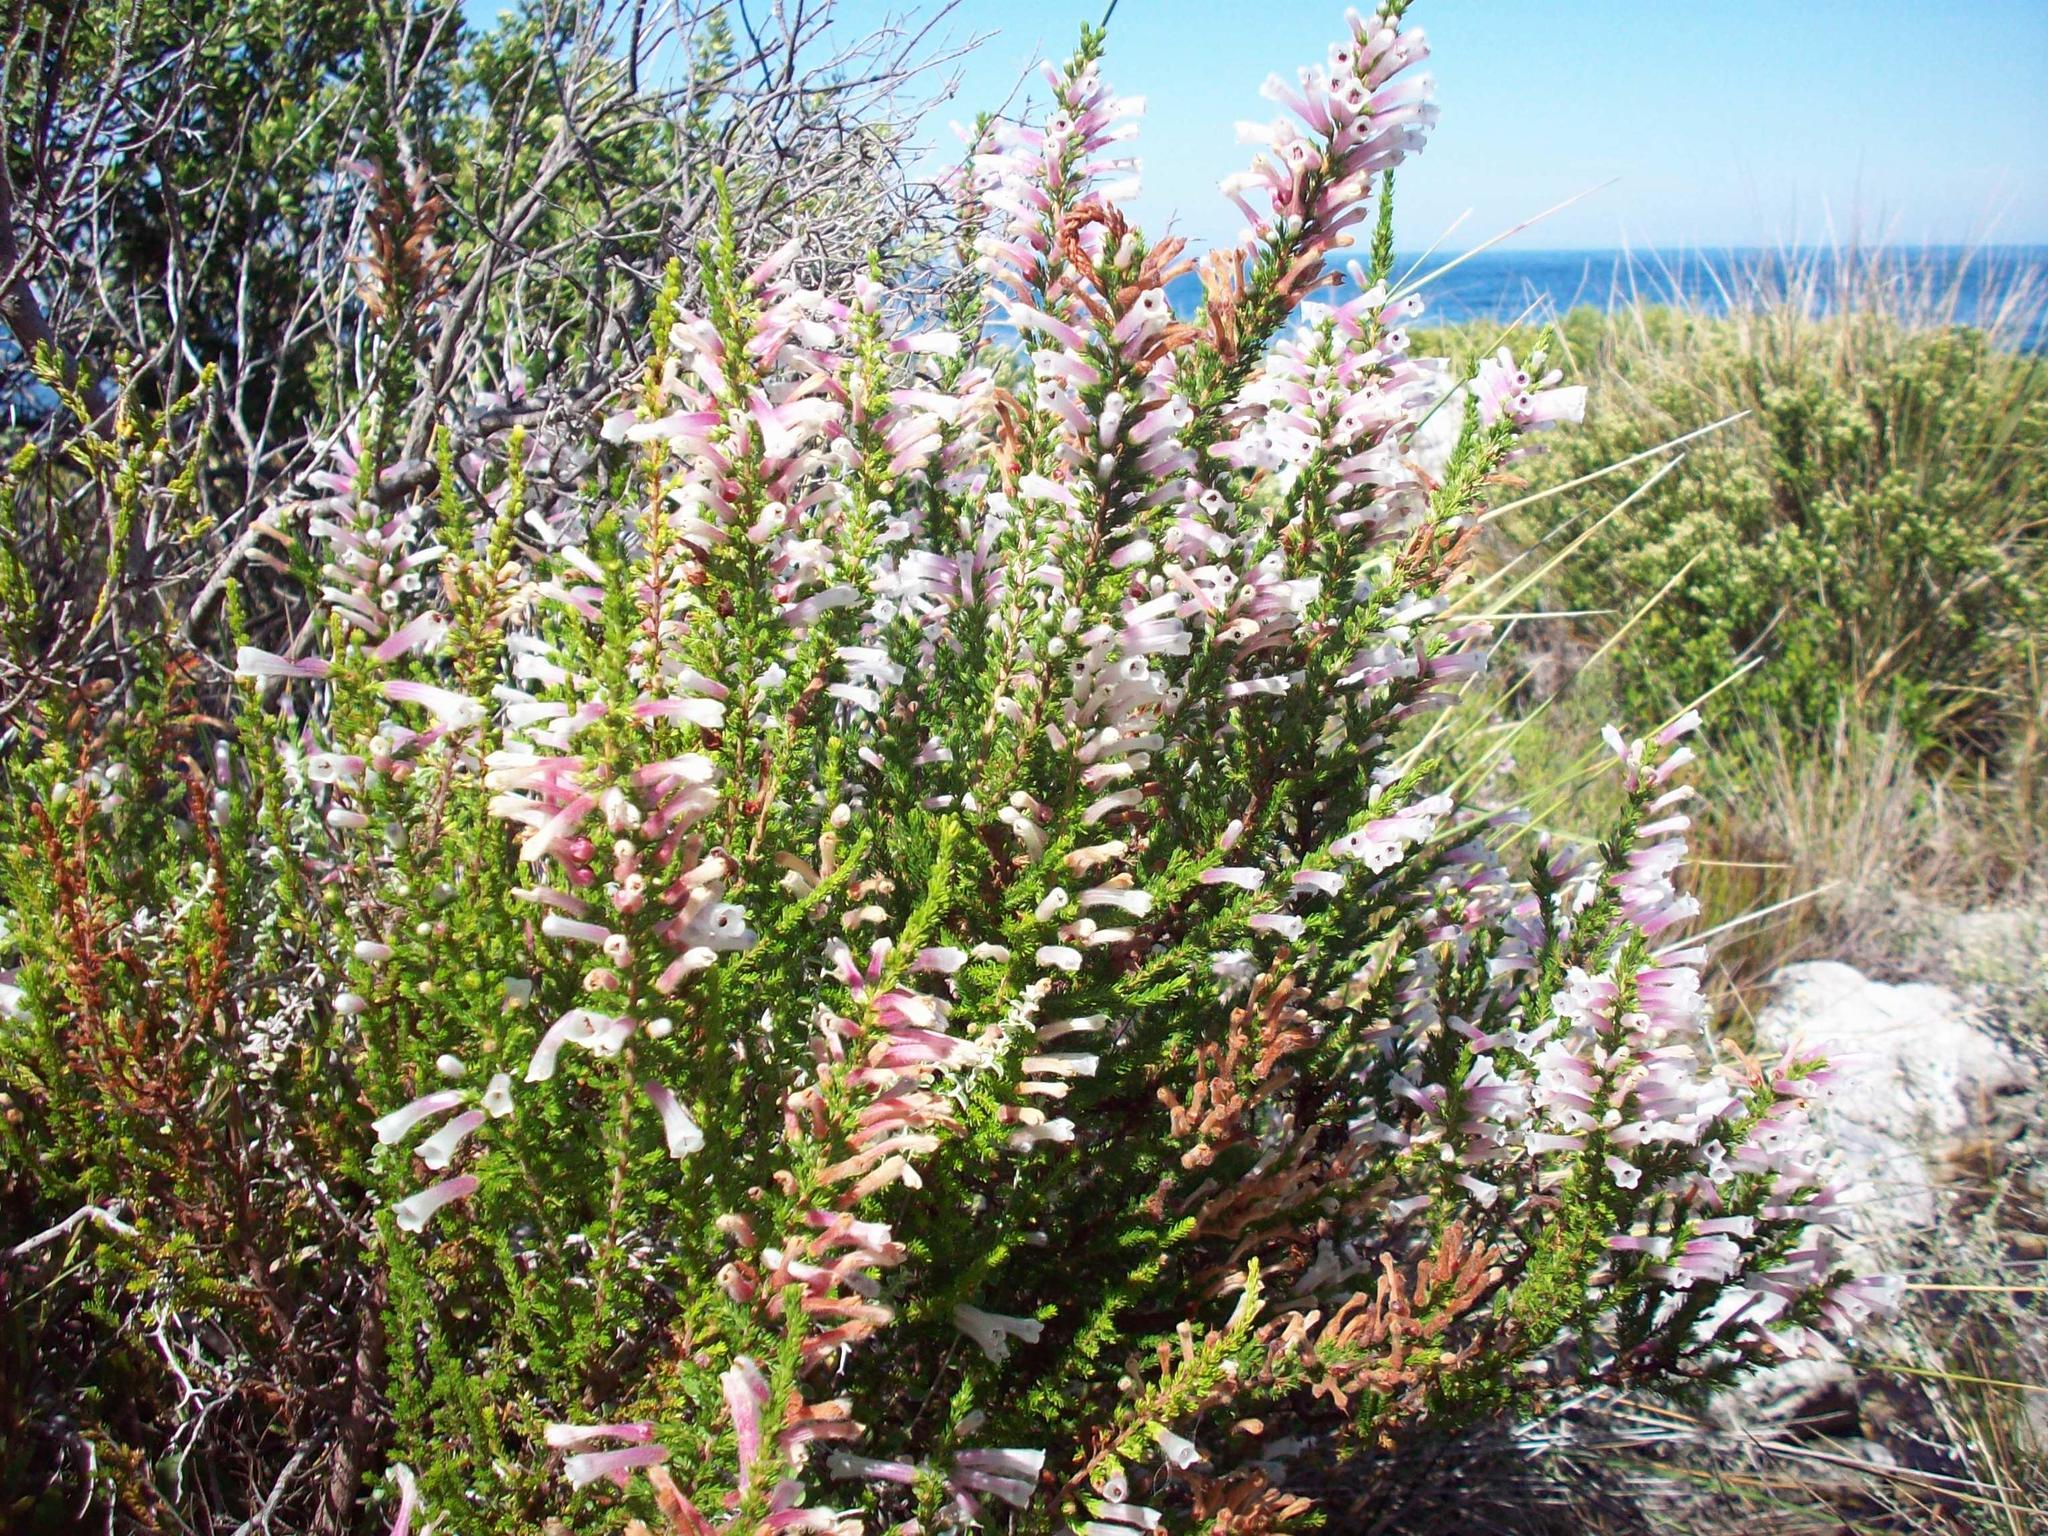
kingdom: Plantae
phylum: Tracheophyta
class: Magnoliopsida
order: Ericales
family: Ericaceae
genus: Erica
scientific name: Erica perspicua
